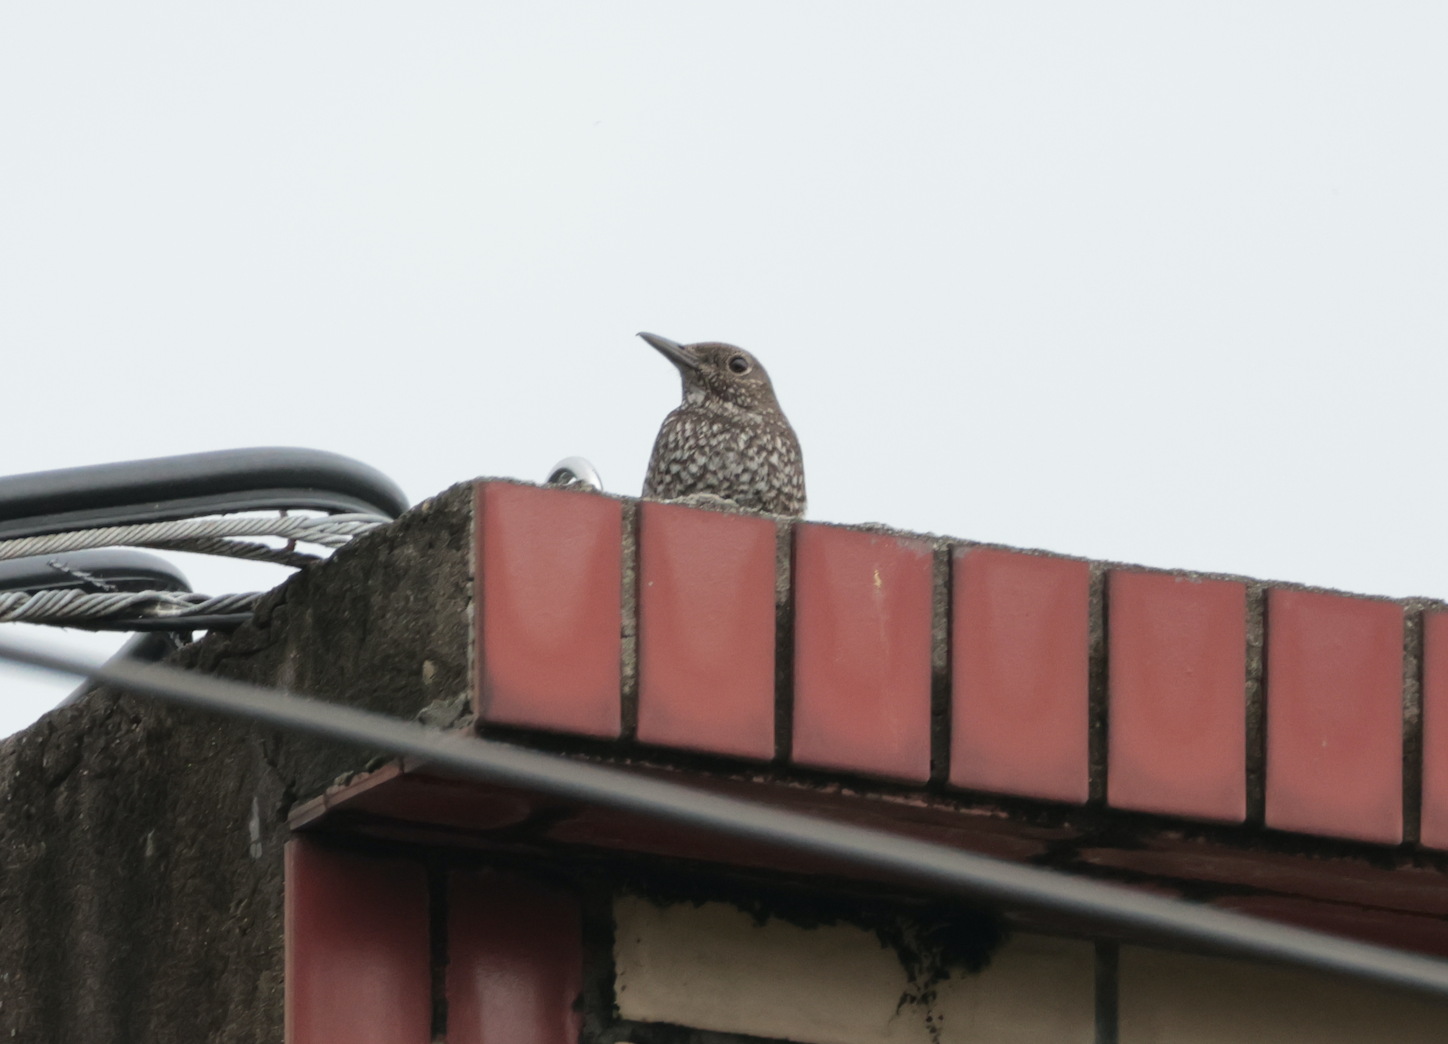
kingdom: Animalia
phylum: Chordata
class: Aves
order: Passeriformes
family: Muscicapidae
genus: Monticola
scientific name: Monticola solitarius
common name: Blue rock thrush
